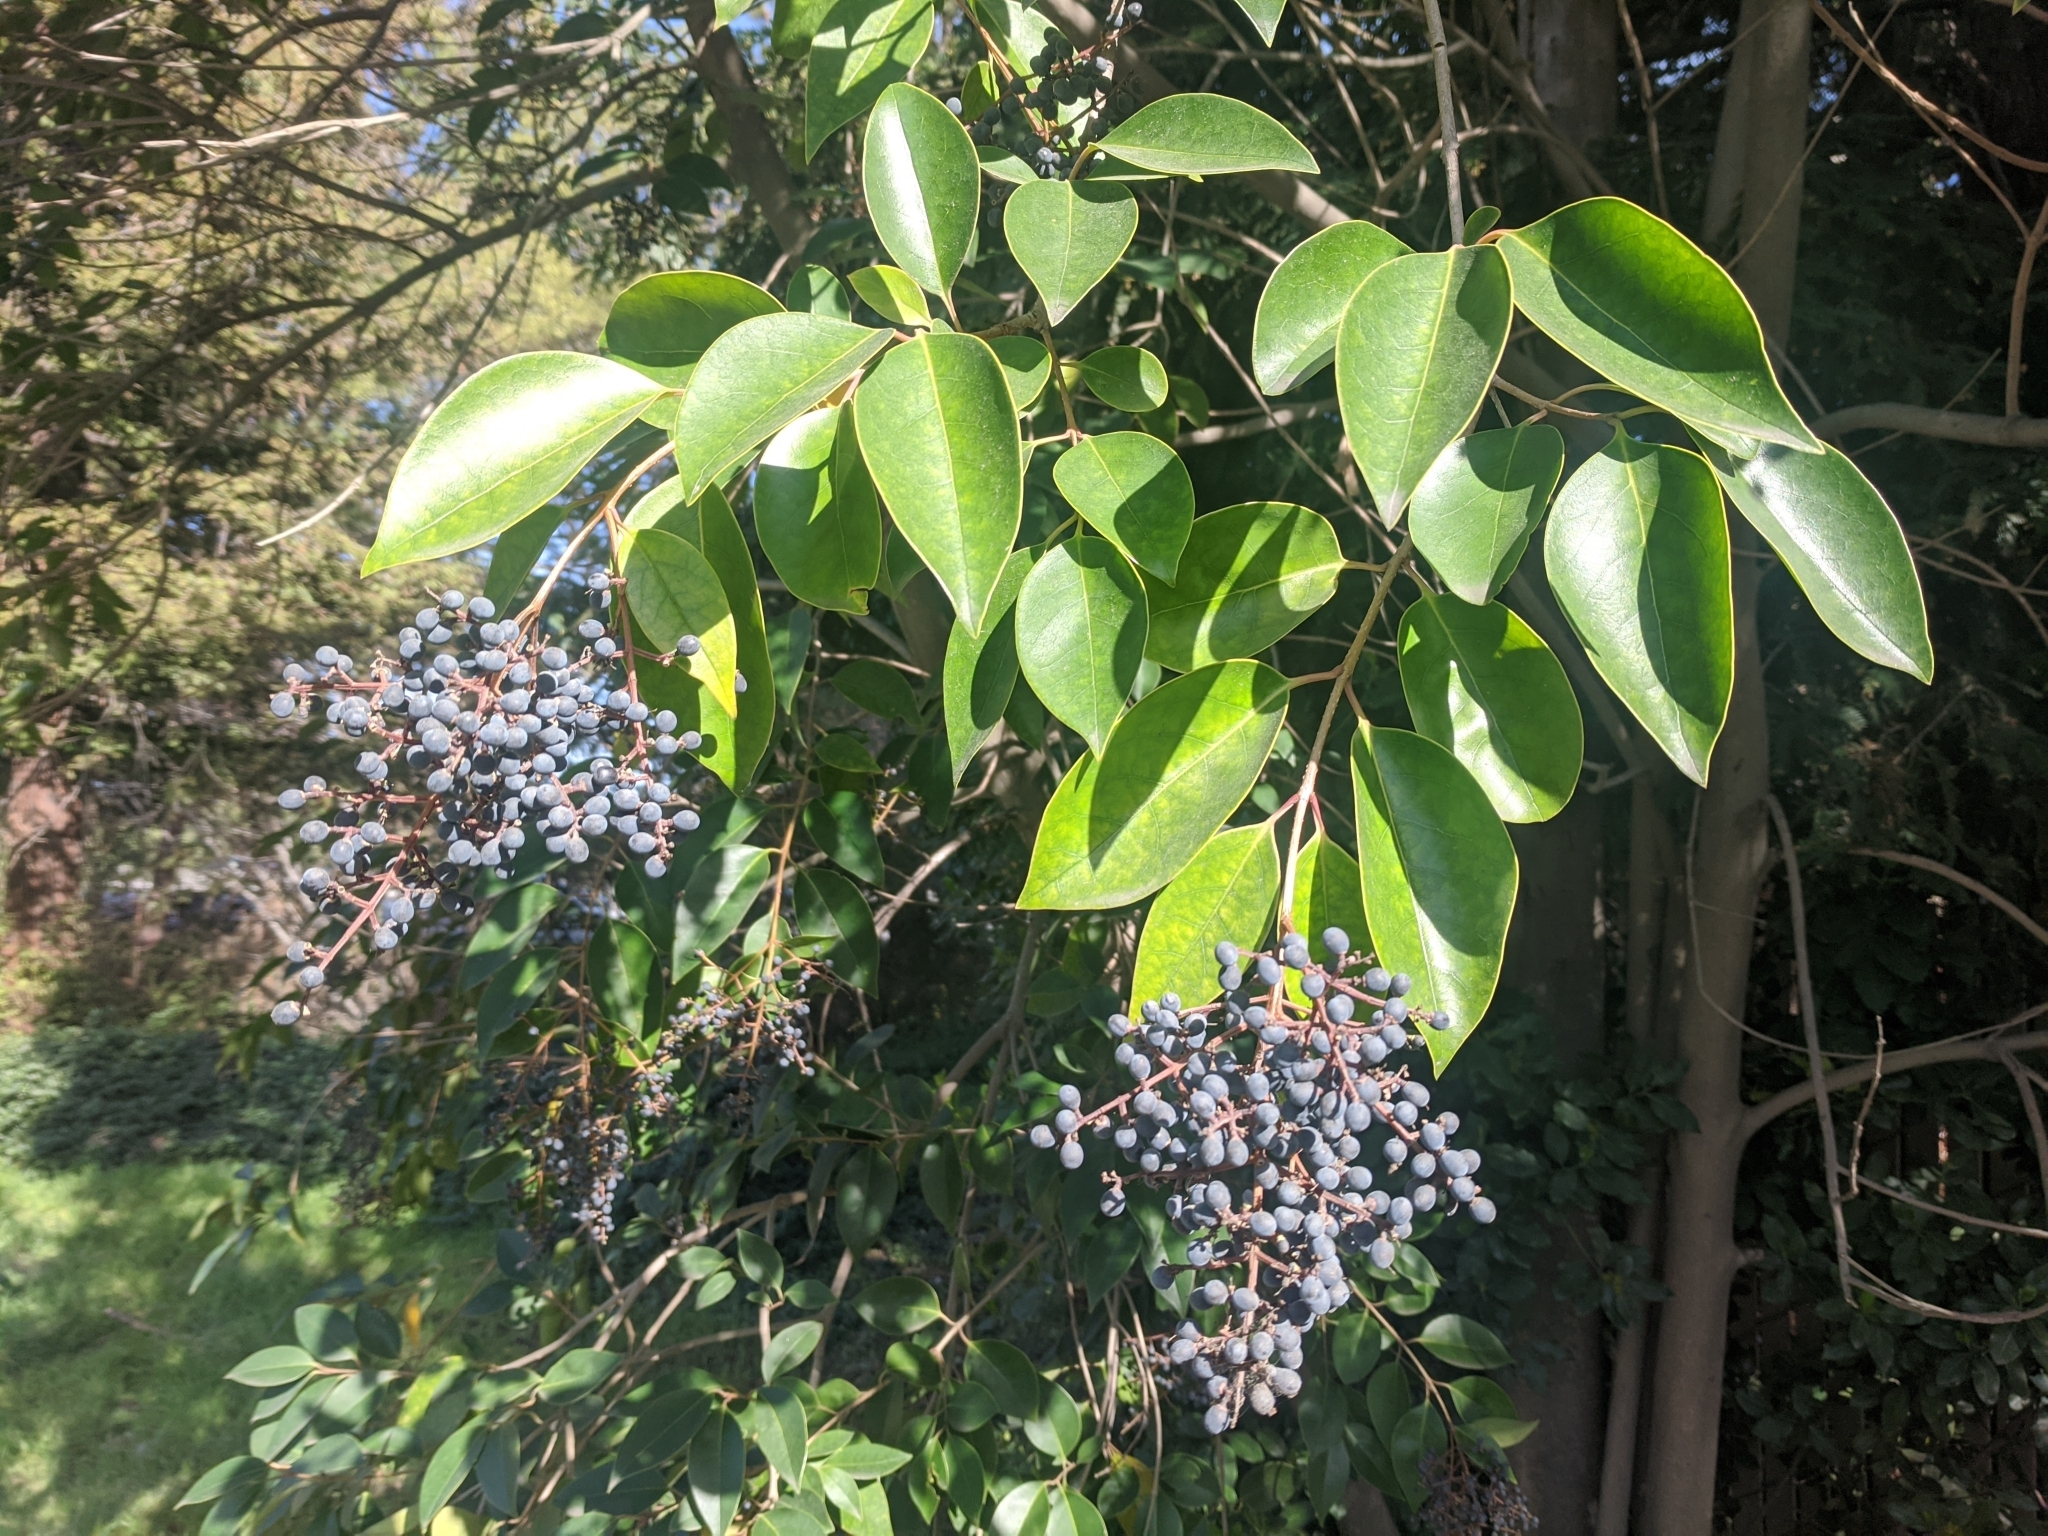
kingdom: Plantae
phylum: Tracheophyta
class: Magnoliopsida
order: Lamiales
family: Oleaceae
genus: Ligustrum
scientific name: Ligustrum lucidum
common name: Glossy privet
